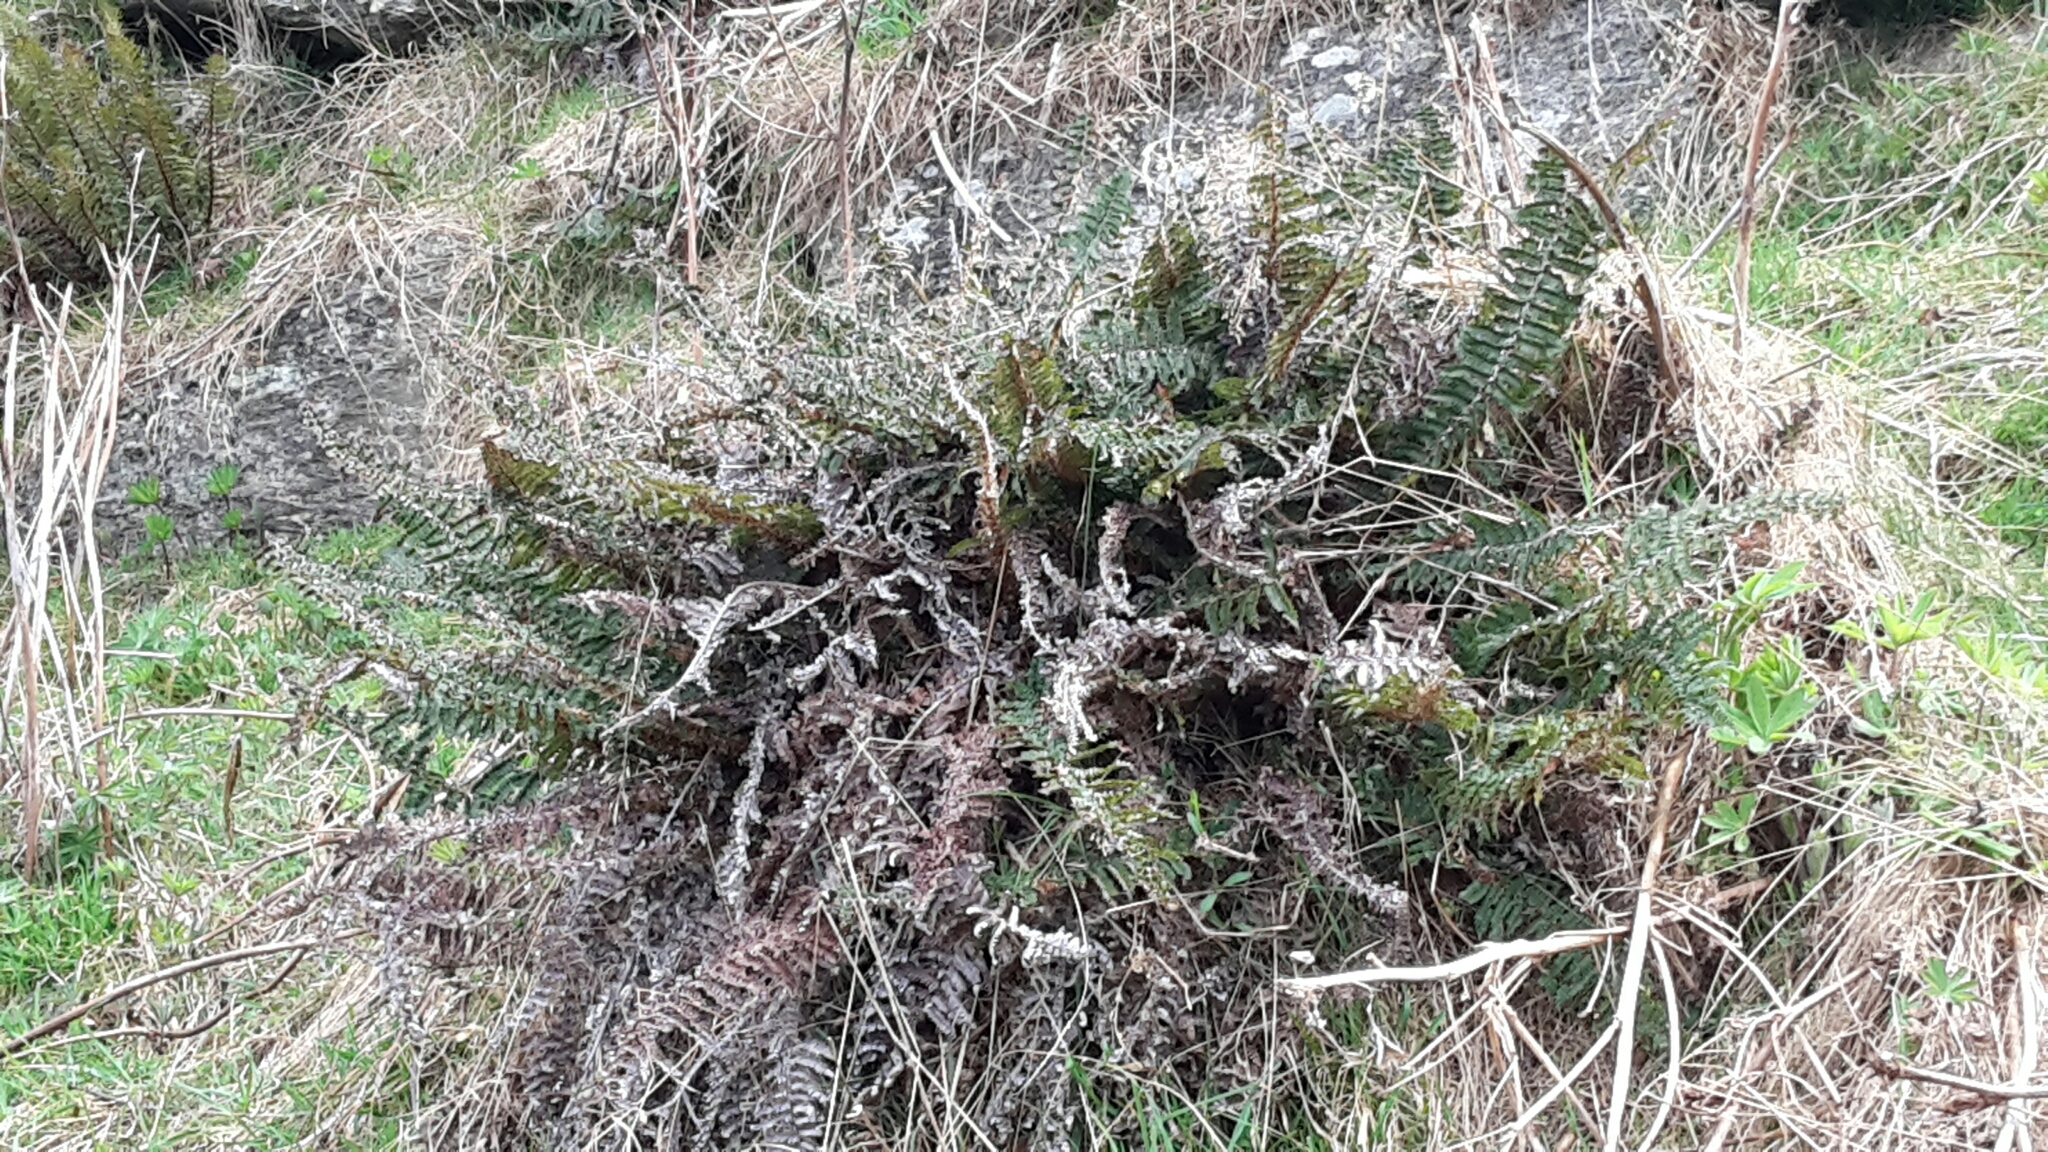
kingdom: Plantae
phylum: Tracheophyta
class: Polypodiopsida
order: Polypodiales
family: Dryopteridaceae
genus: Polystichum
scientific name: Polystichum vestitum
